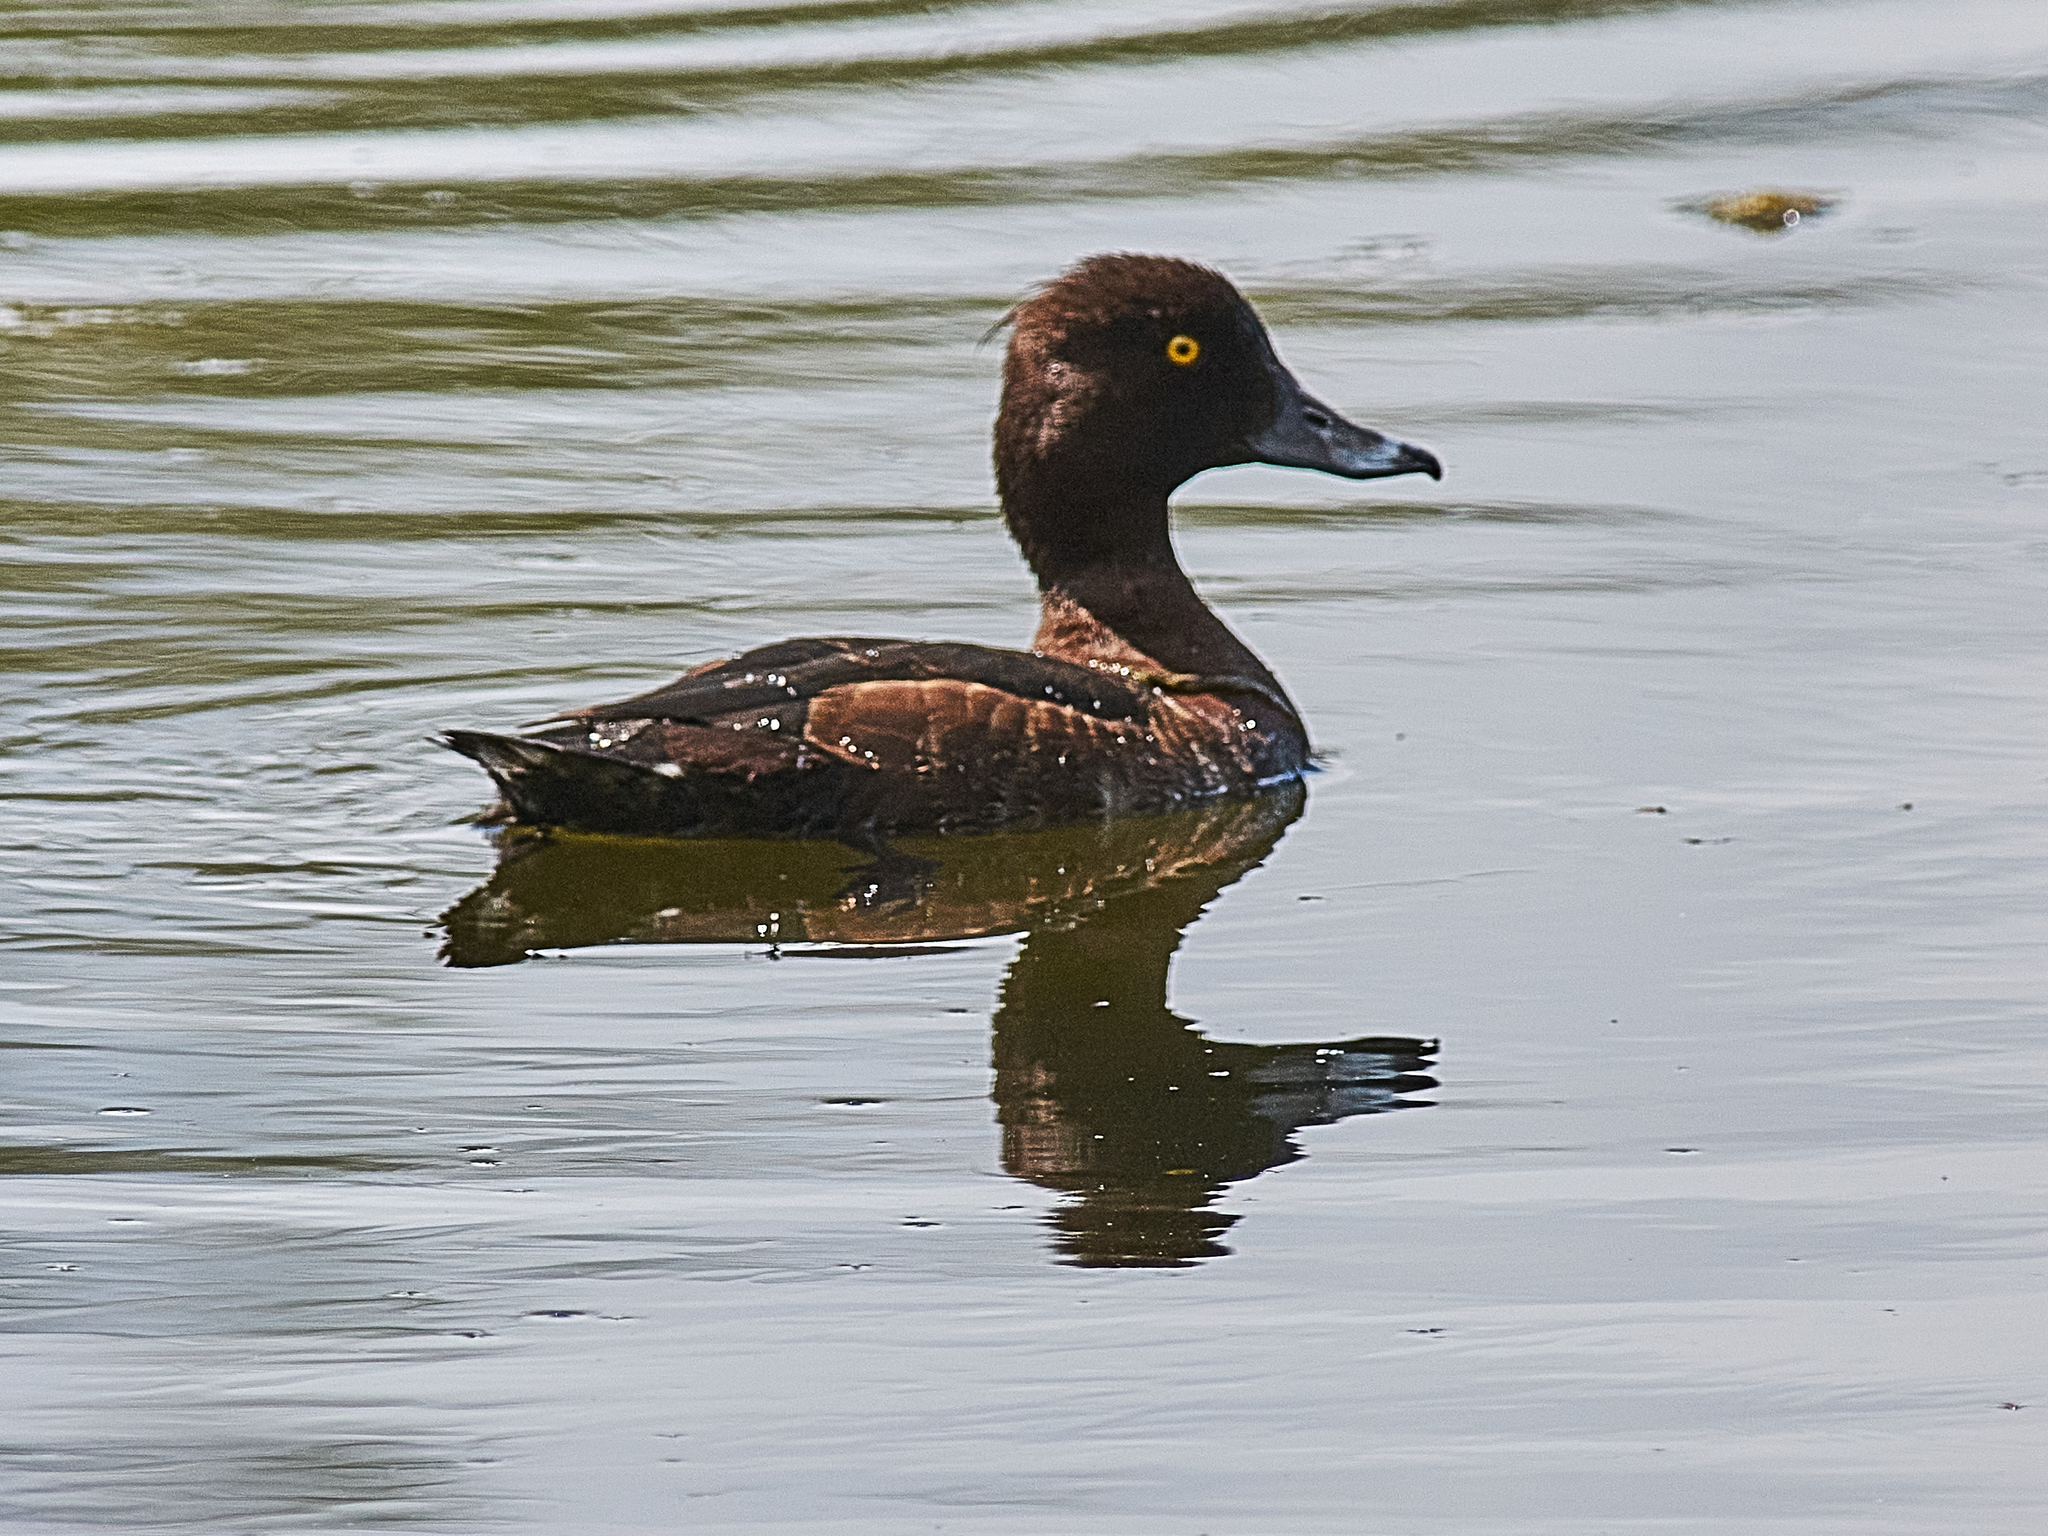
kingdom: Animalia
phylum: Chordata
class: Aves
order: Anseriformes
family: Anatidae
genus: Aythya
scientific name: Aythya fuligula
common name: Tufted duck
